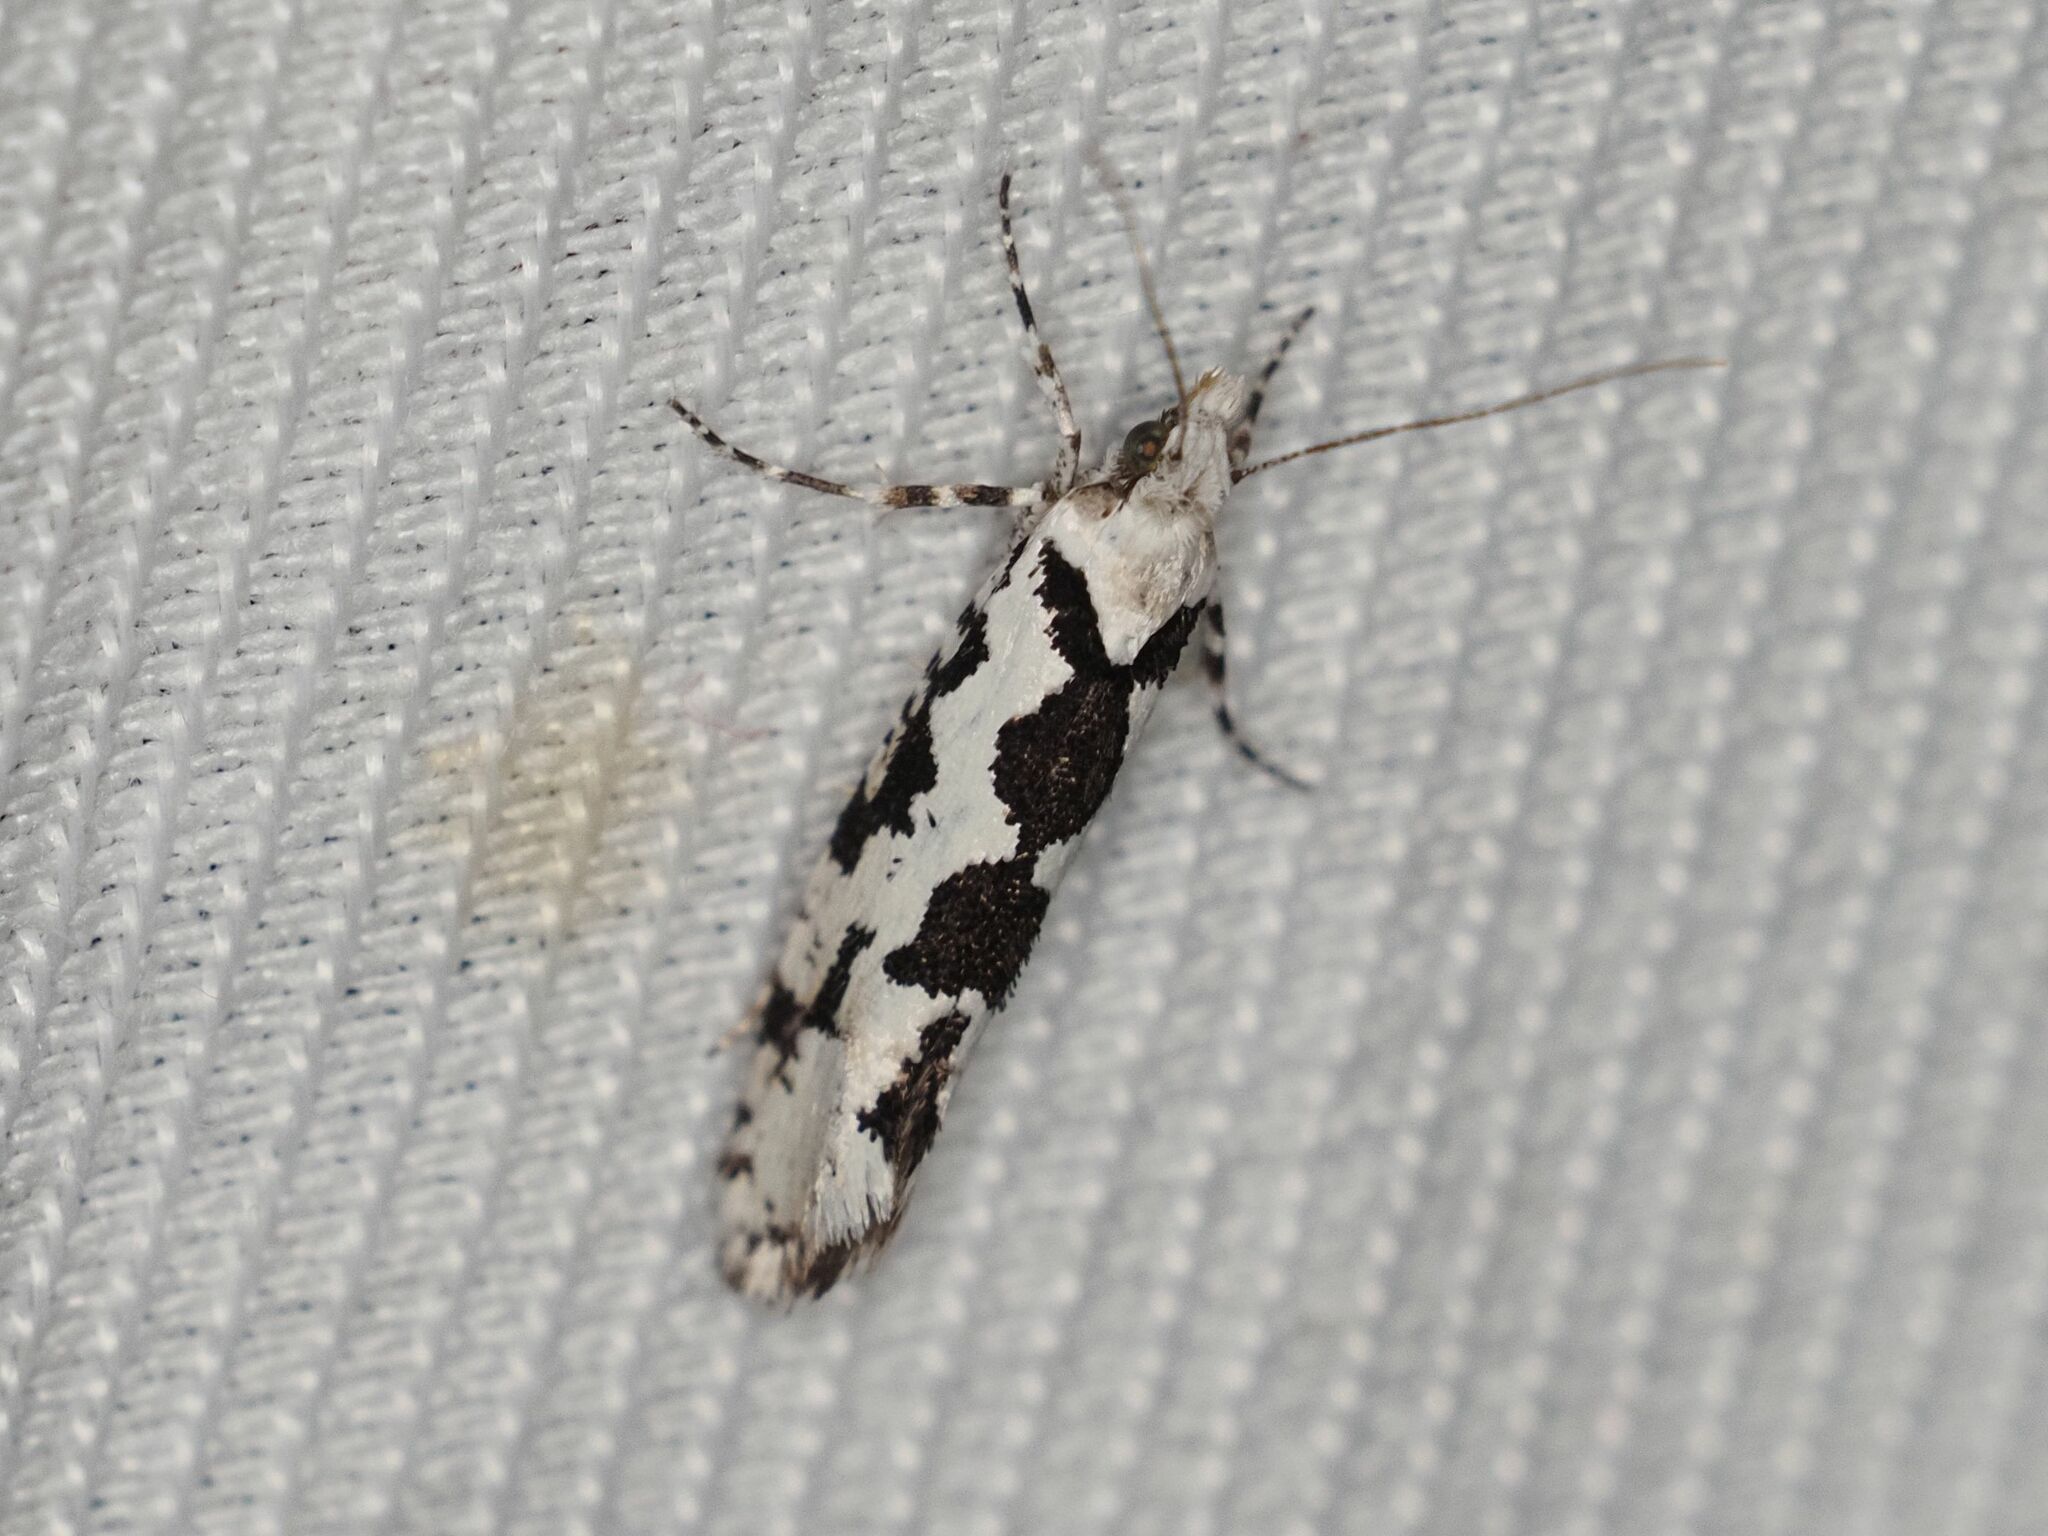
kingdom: Animalia
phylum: Arthropoda
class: Insecta
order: Lepidoptera
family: Plutellidae
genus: Ypsolophus
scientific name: Ypsolophus sequella
